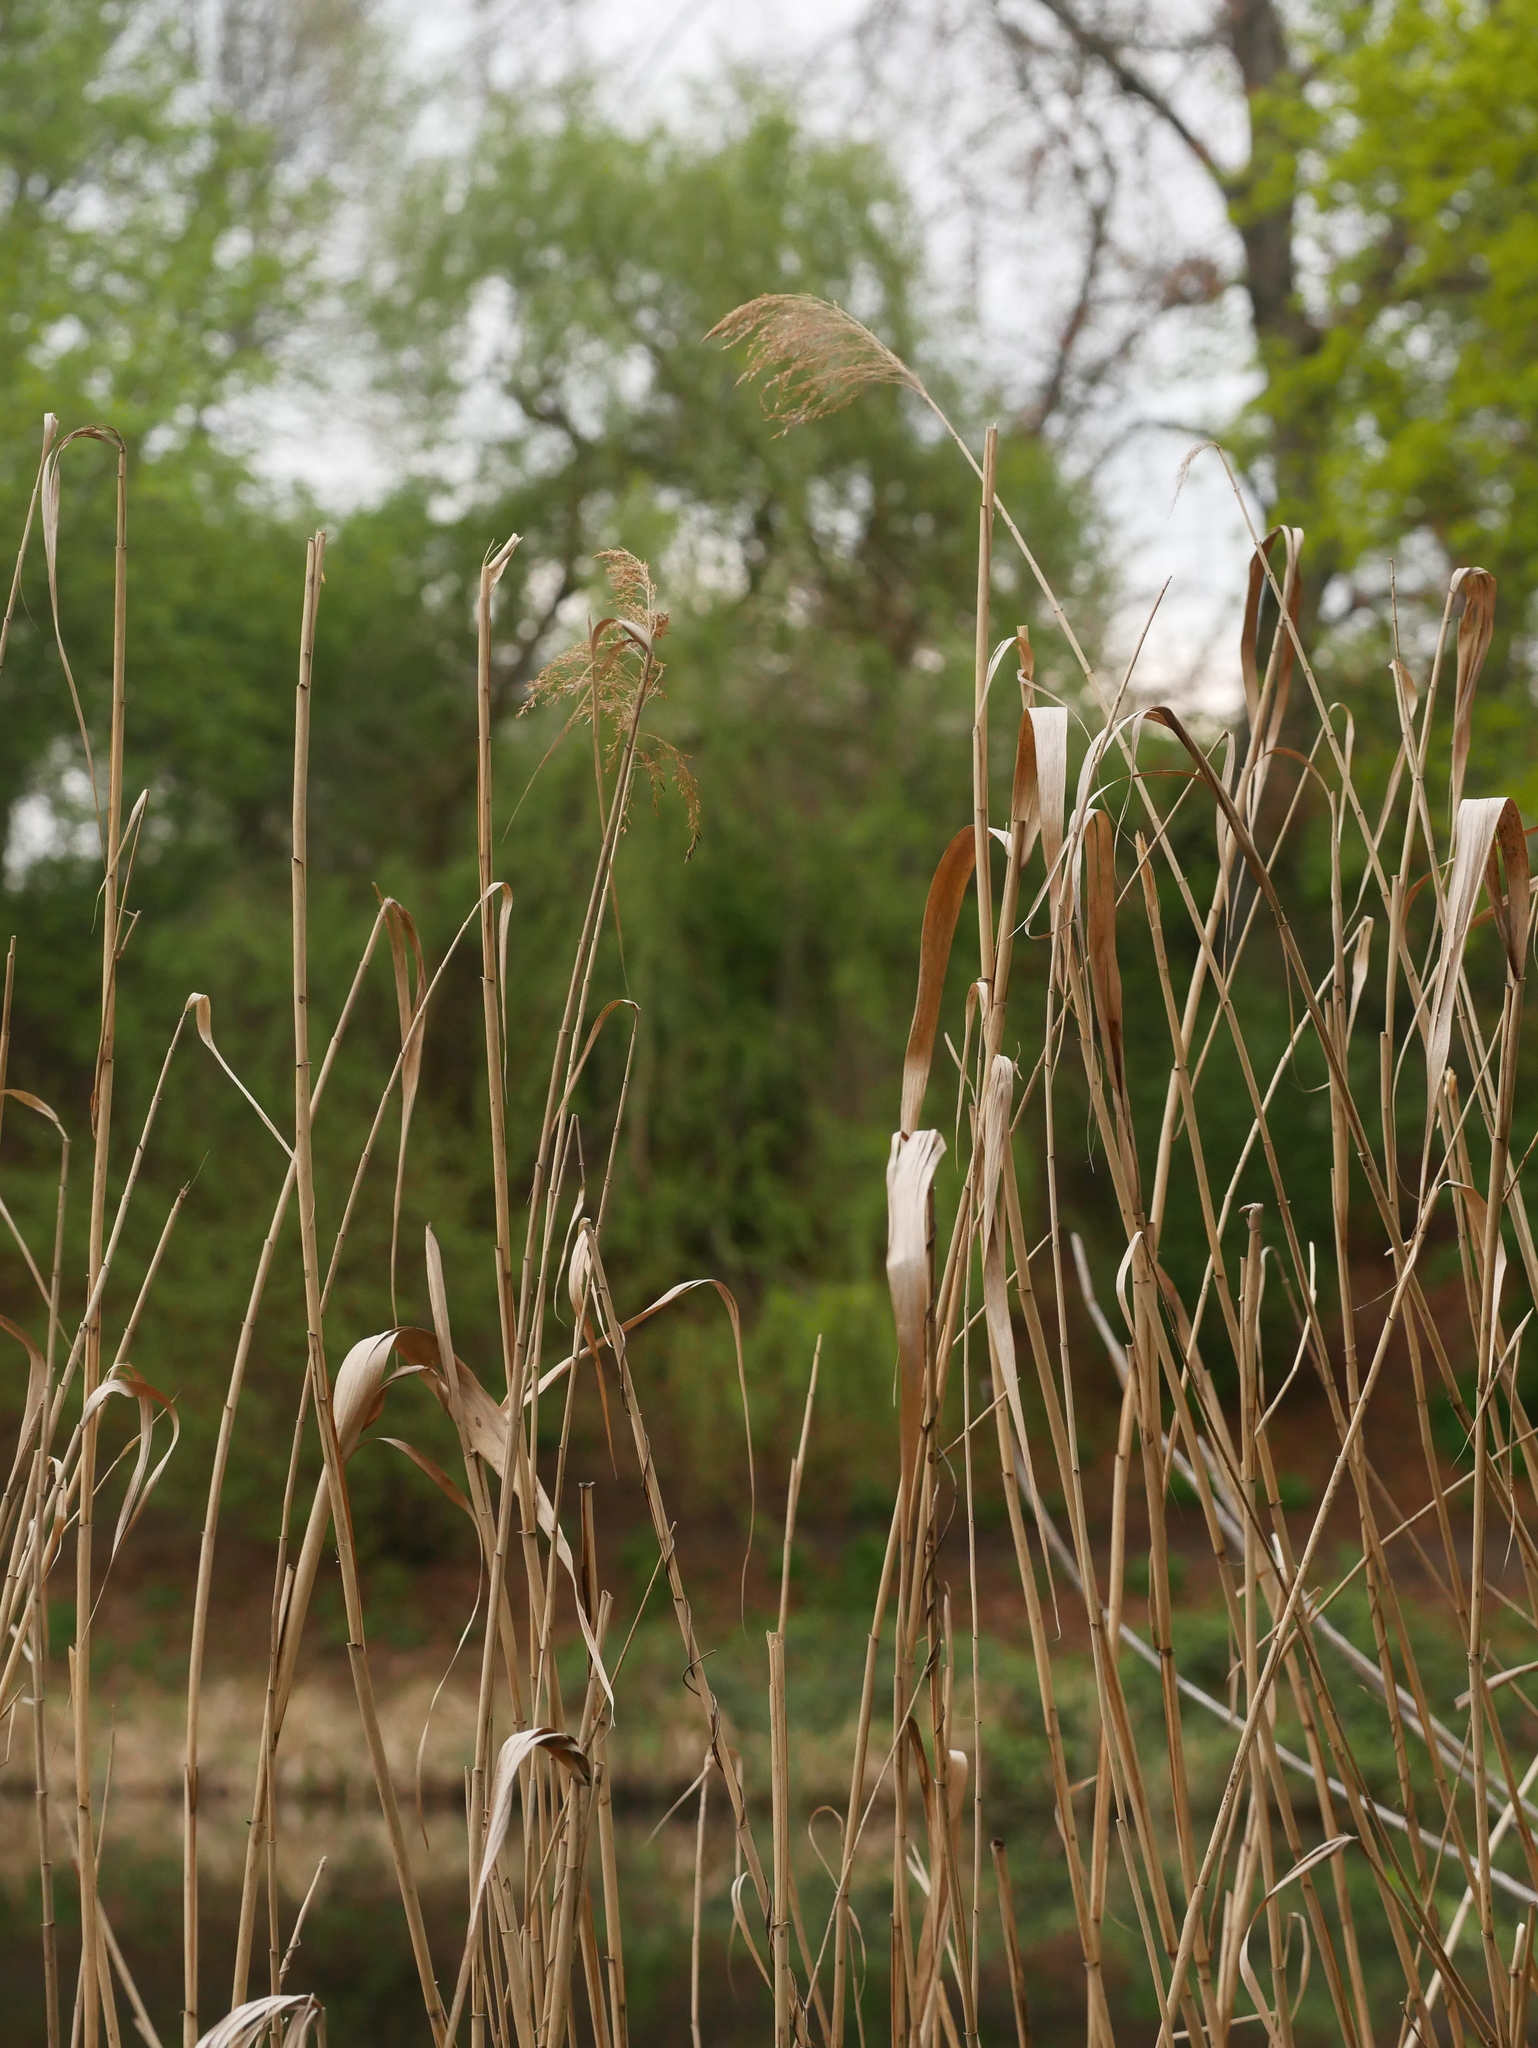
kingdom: Plantae
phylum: Tracheophyta
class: Liliopsida
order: Poales
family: Poaceae
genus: Phragmites
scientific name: Phragmites australis
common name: Common reed
